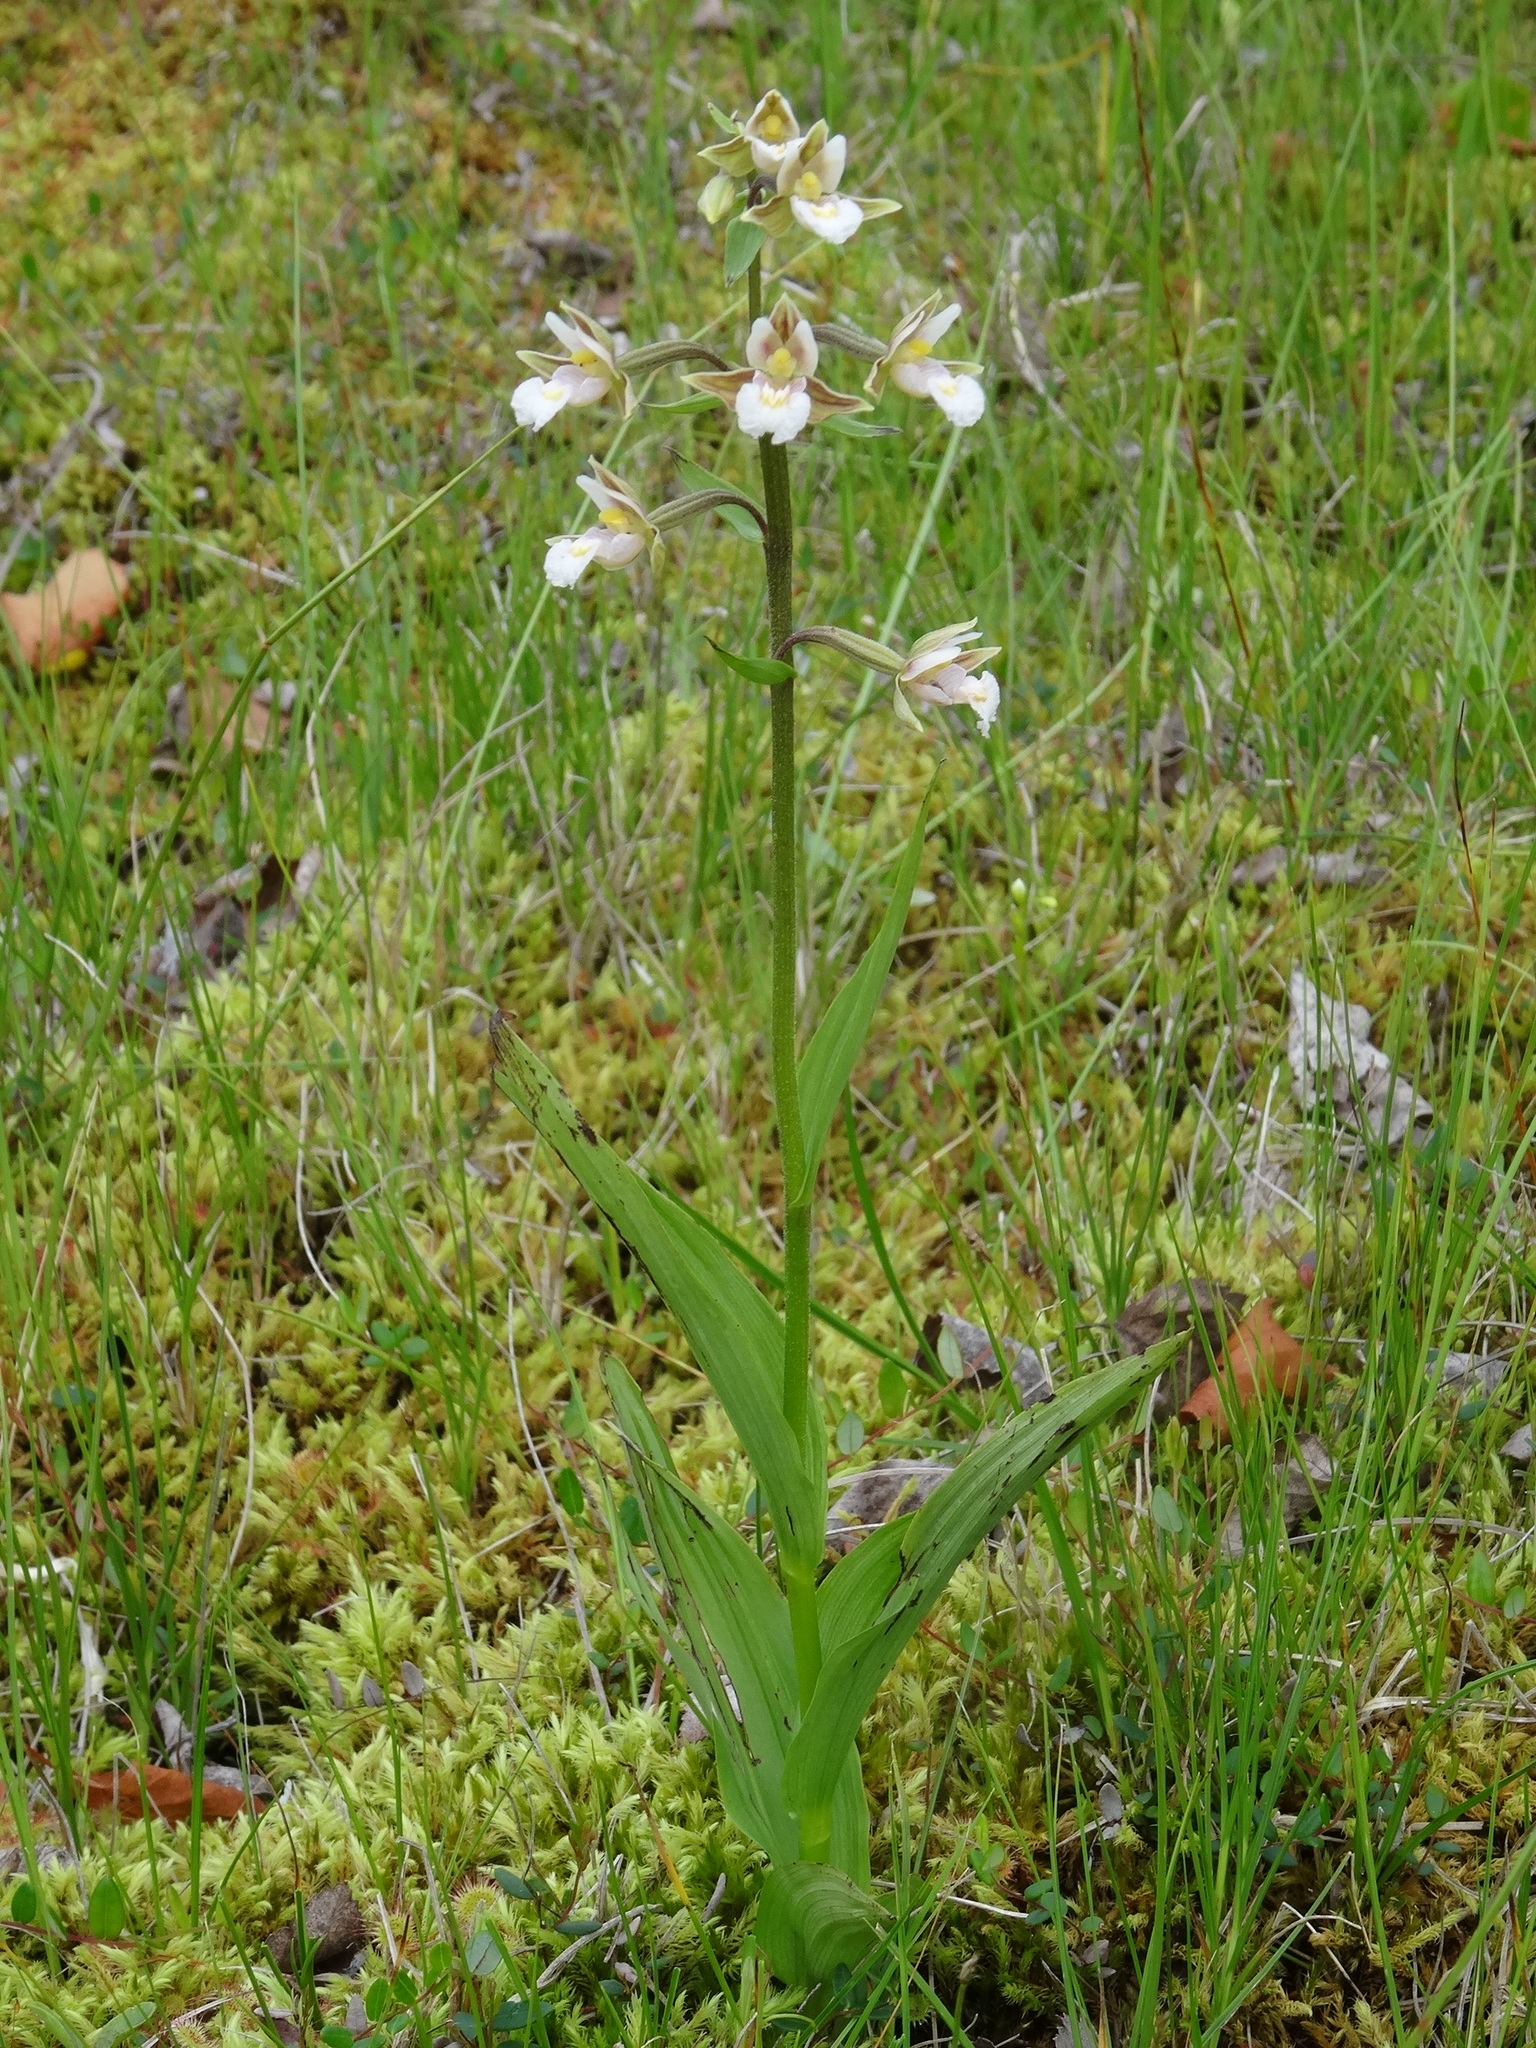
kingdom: Plantae
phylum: Tracheophyta
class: Liliopsida
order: Asparagales
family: Orchidaceae
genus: Epipactis
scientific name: Epipactis palustris
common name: Marsh helleborine
